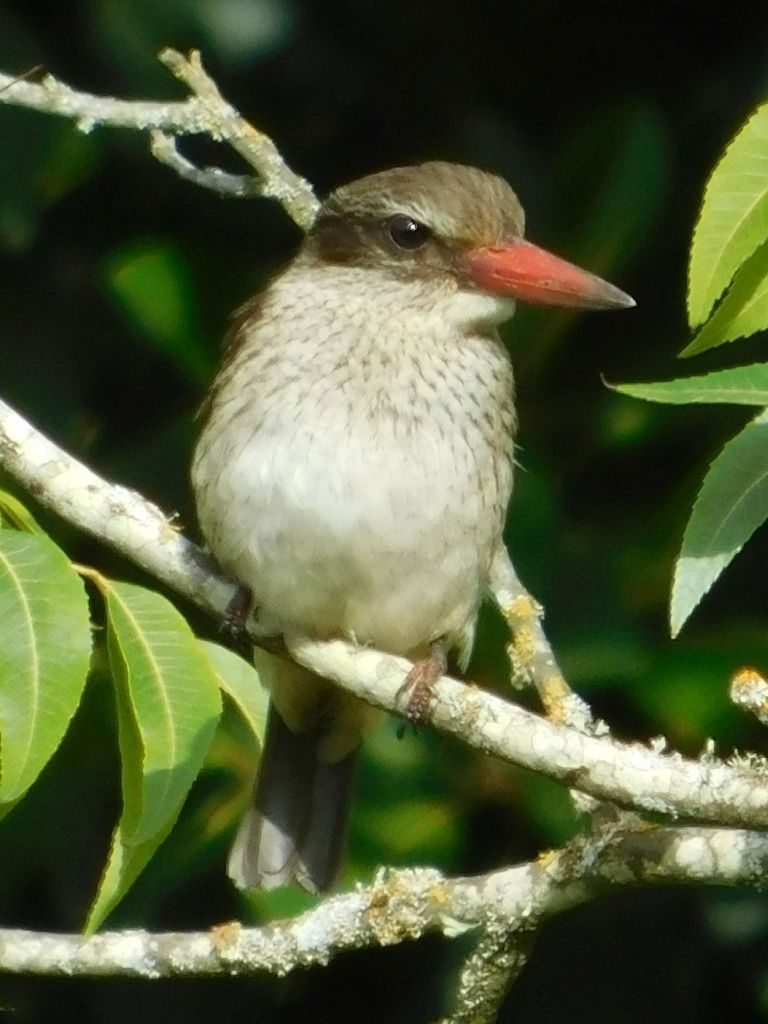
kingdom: Animalia
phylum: Chordata
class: Aves
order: Coraciiformes
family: Alcedinidae
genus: Halcyon
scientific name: Halcyon albiventris
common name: Brown-hooded kingfisher
